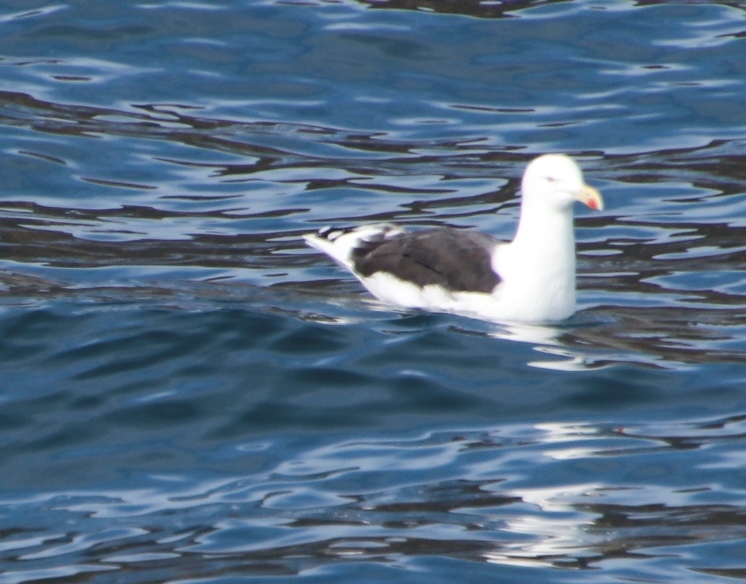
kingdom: Animalia
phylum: Chordata
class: Aves
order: Charadriiformes
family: Laridae
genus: Larus
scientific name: Larus dominicanus
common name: Kelp gull
